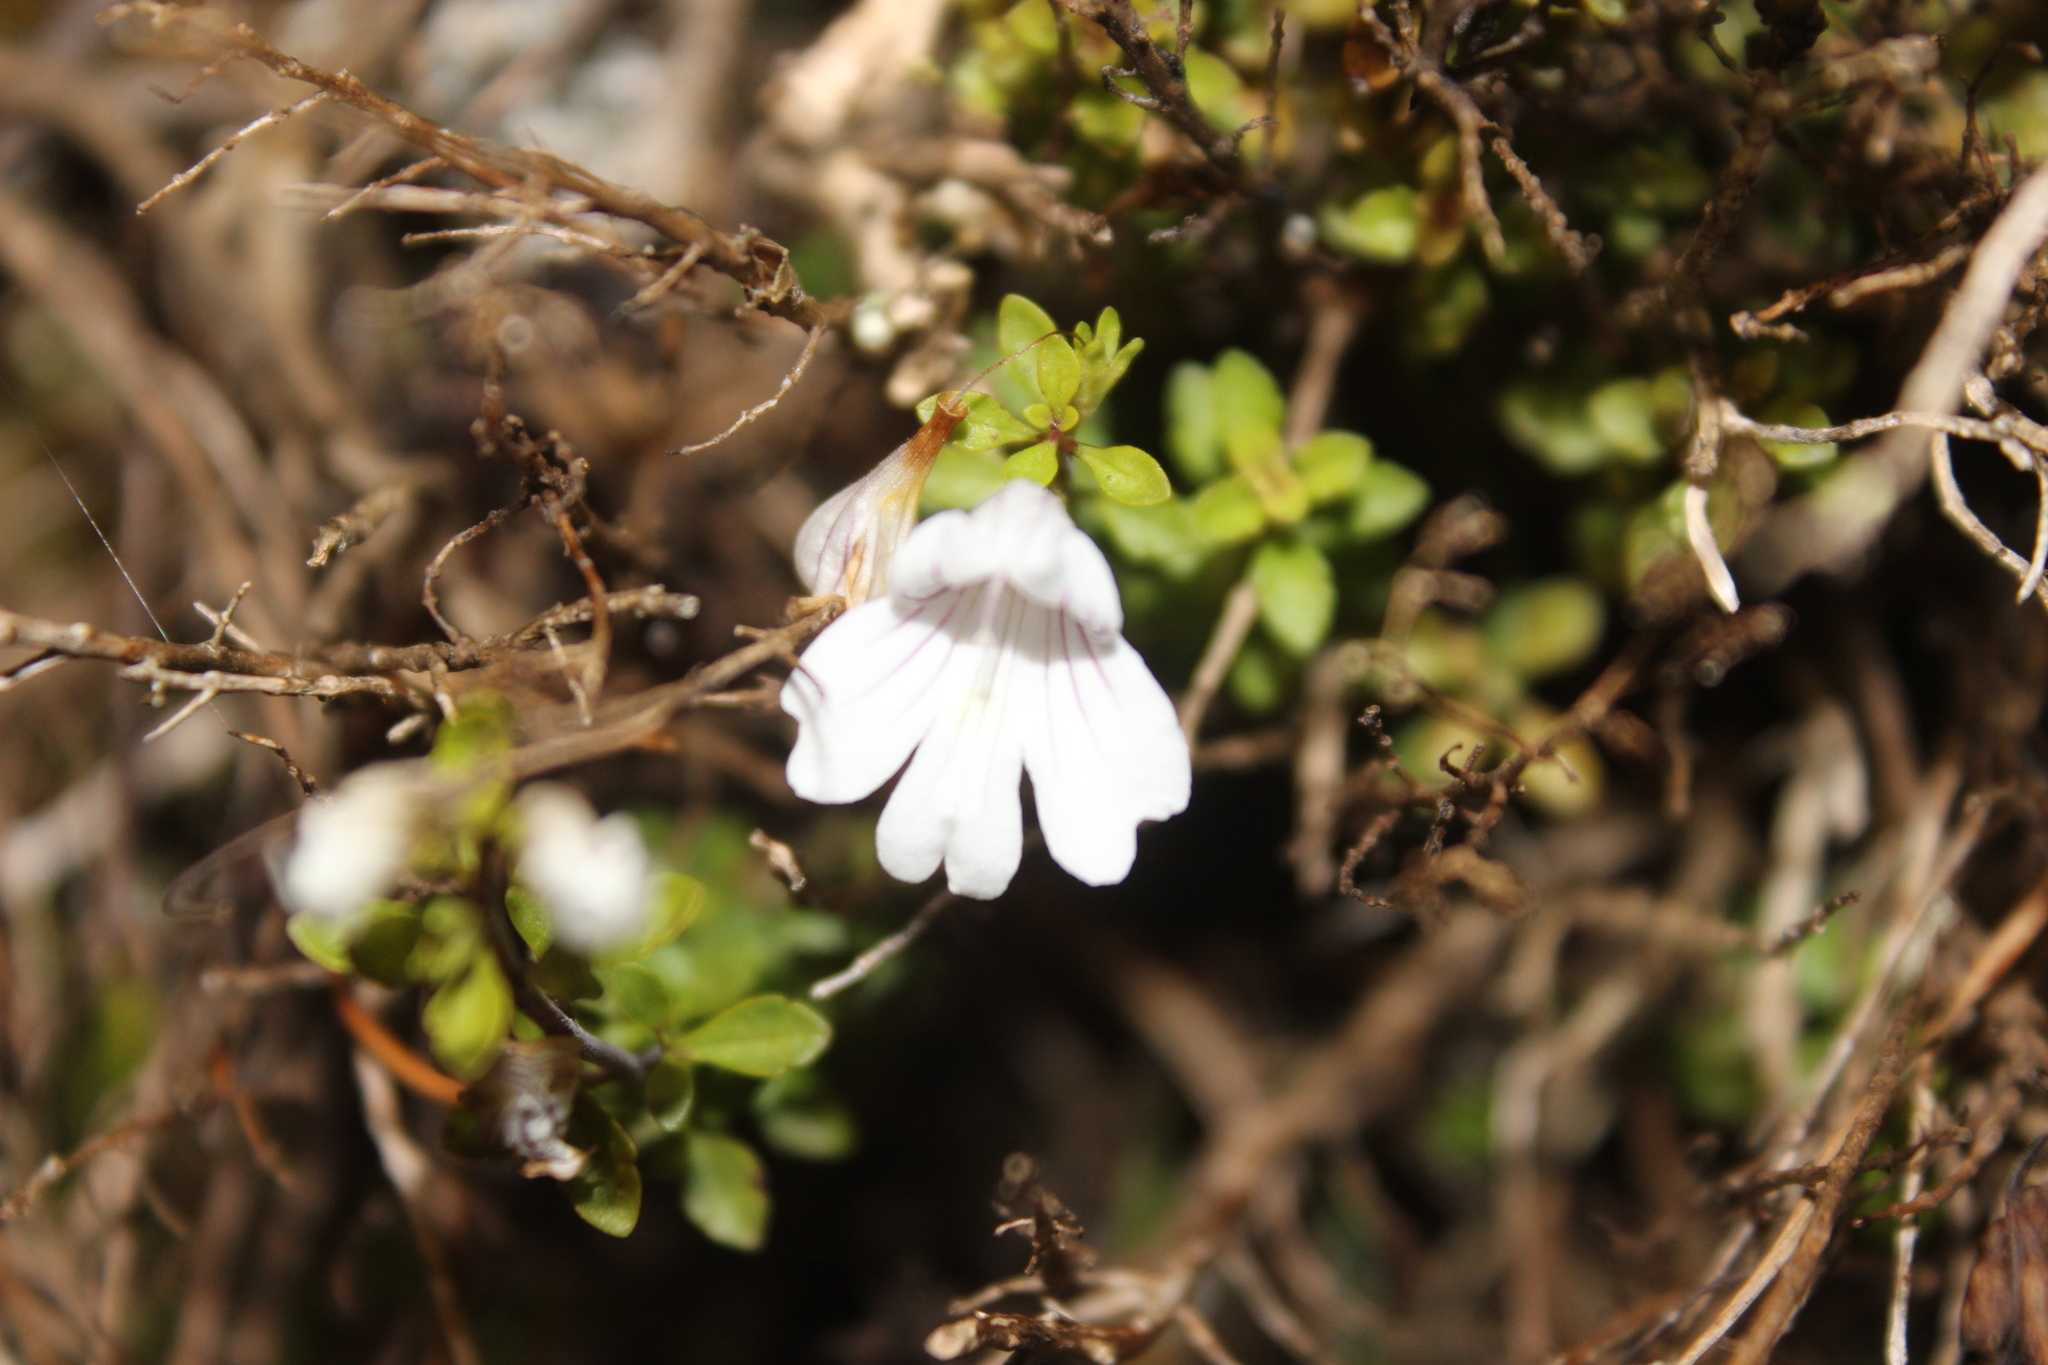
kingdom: Plantae
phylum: Tracheophyta
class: Magnoliopsida
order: Lamiales
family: Orobanchaceae
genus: Euphrasia
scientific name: Euphrasia cuneata
